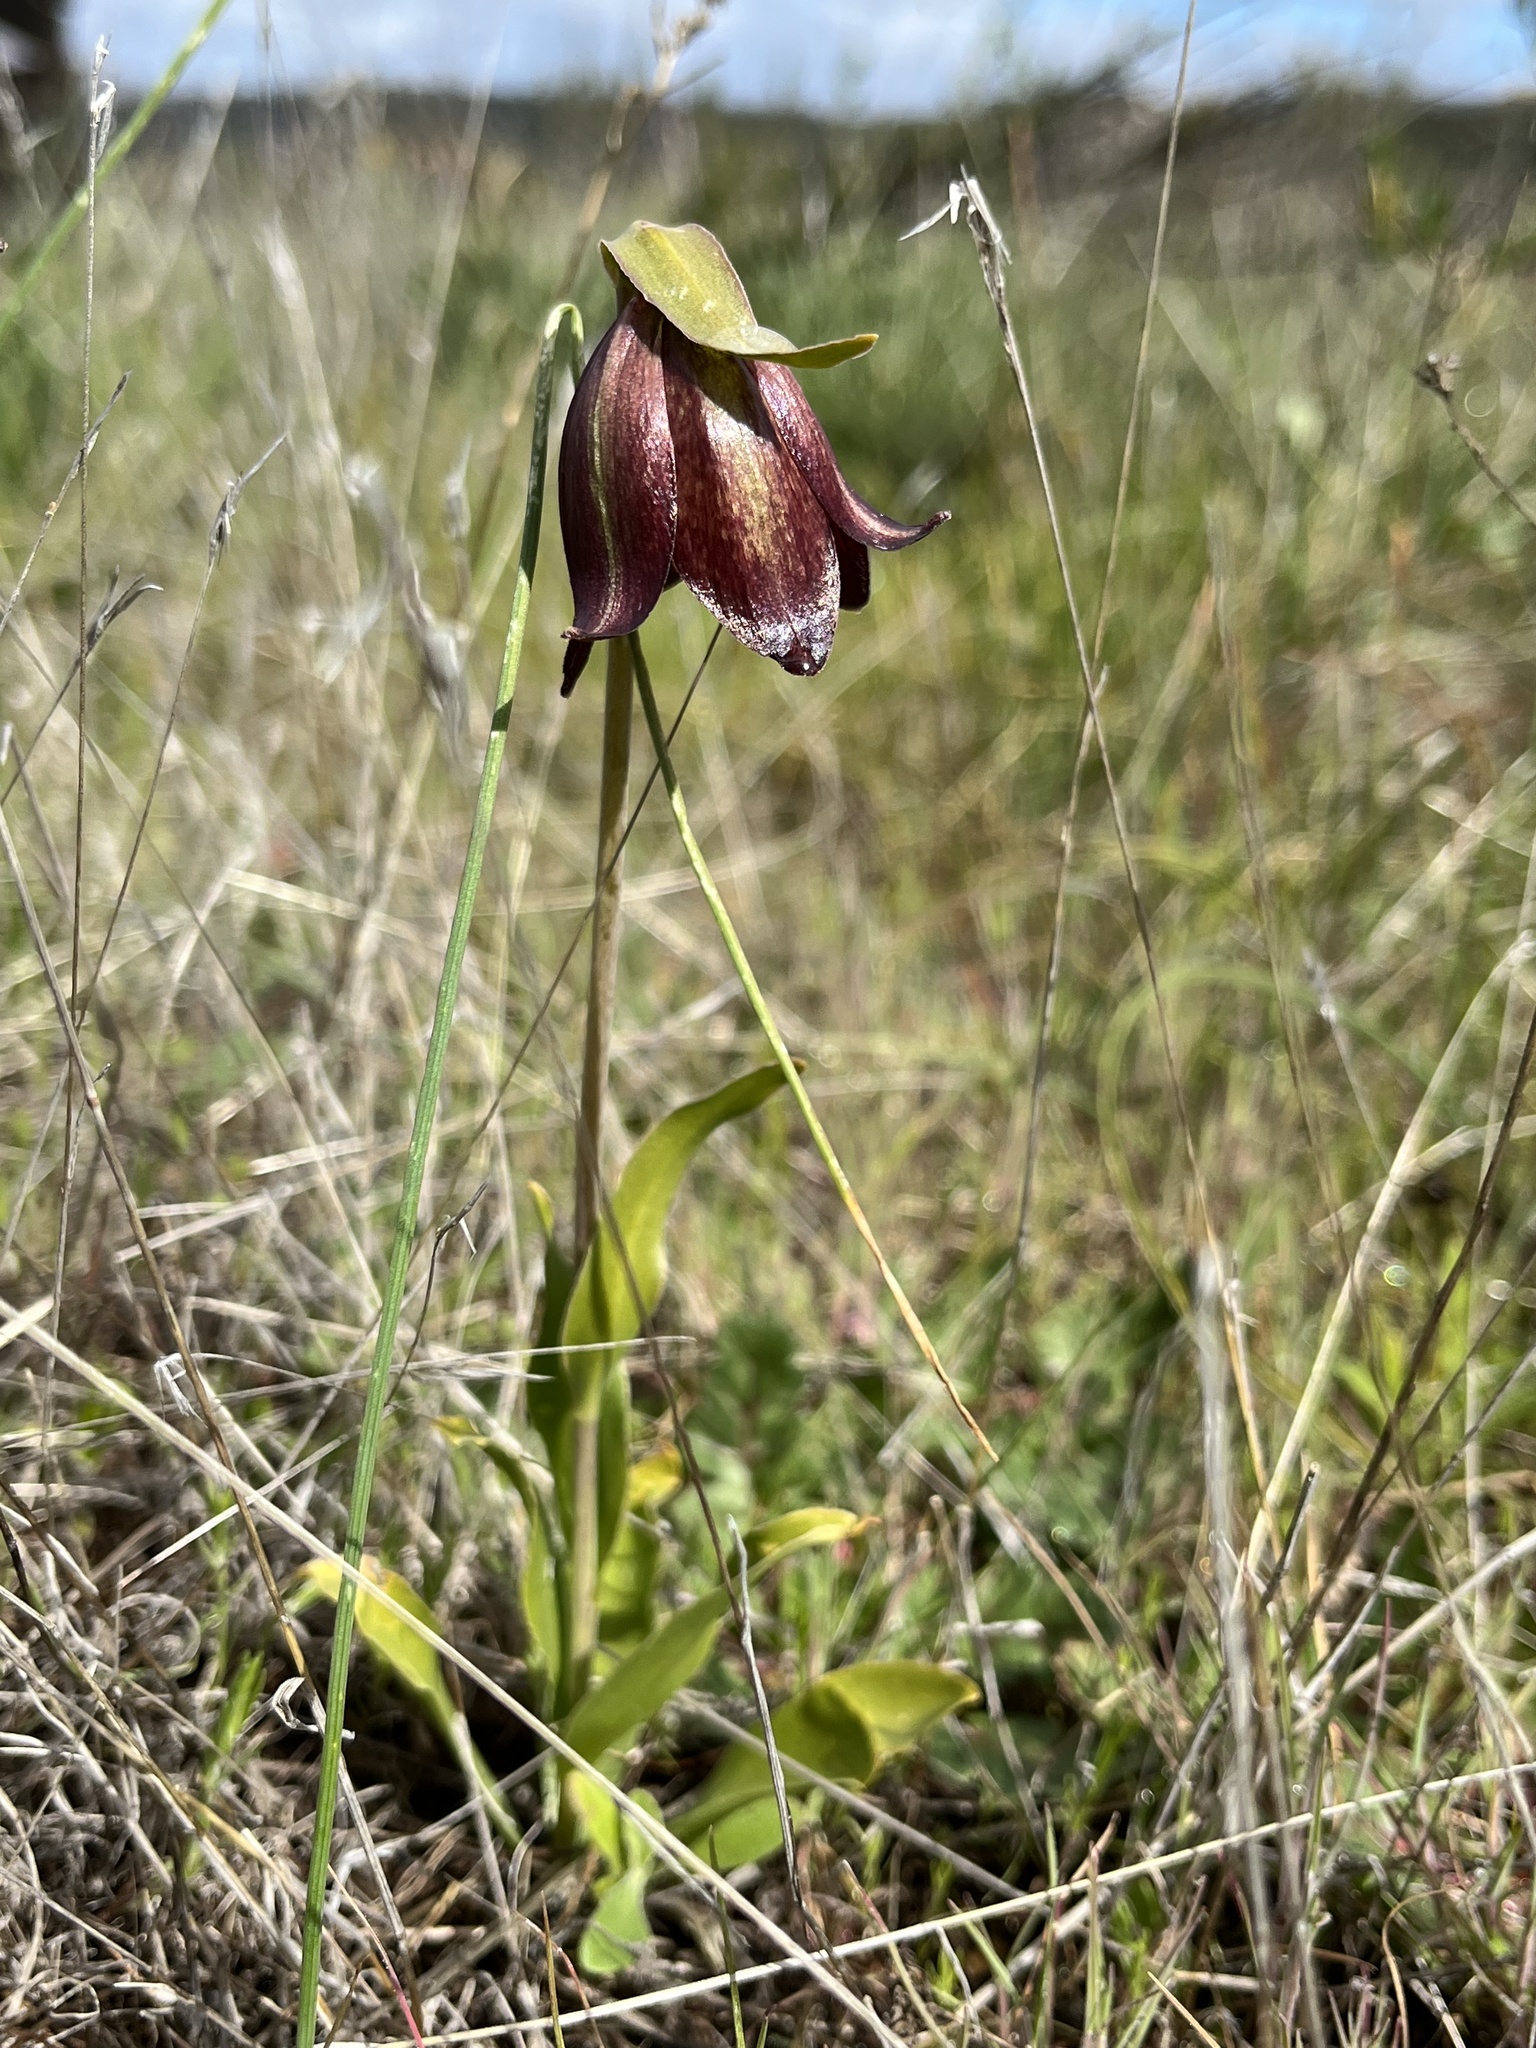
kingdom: Plantae
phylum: Tracheophyta
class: Liliopsida
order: Liliales
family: Liliaceae
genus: Fritillaria
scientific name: Fritillaria biflora
